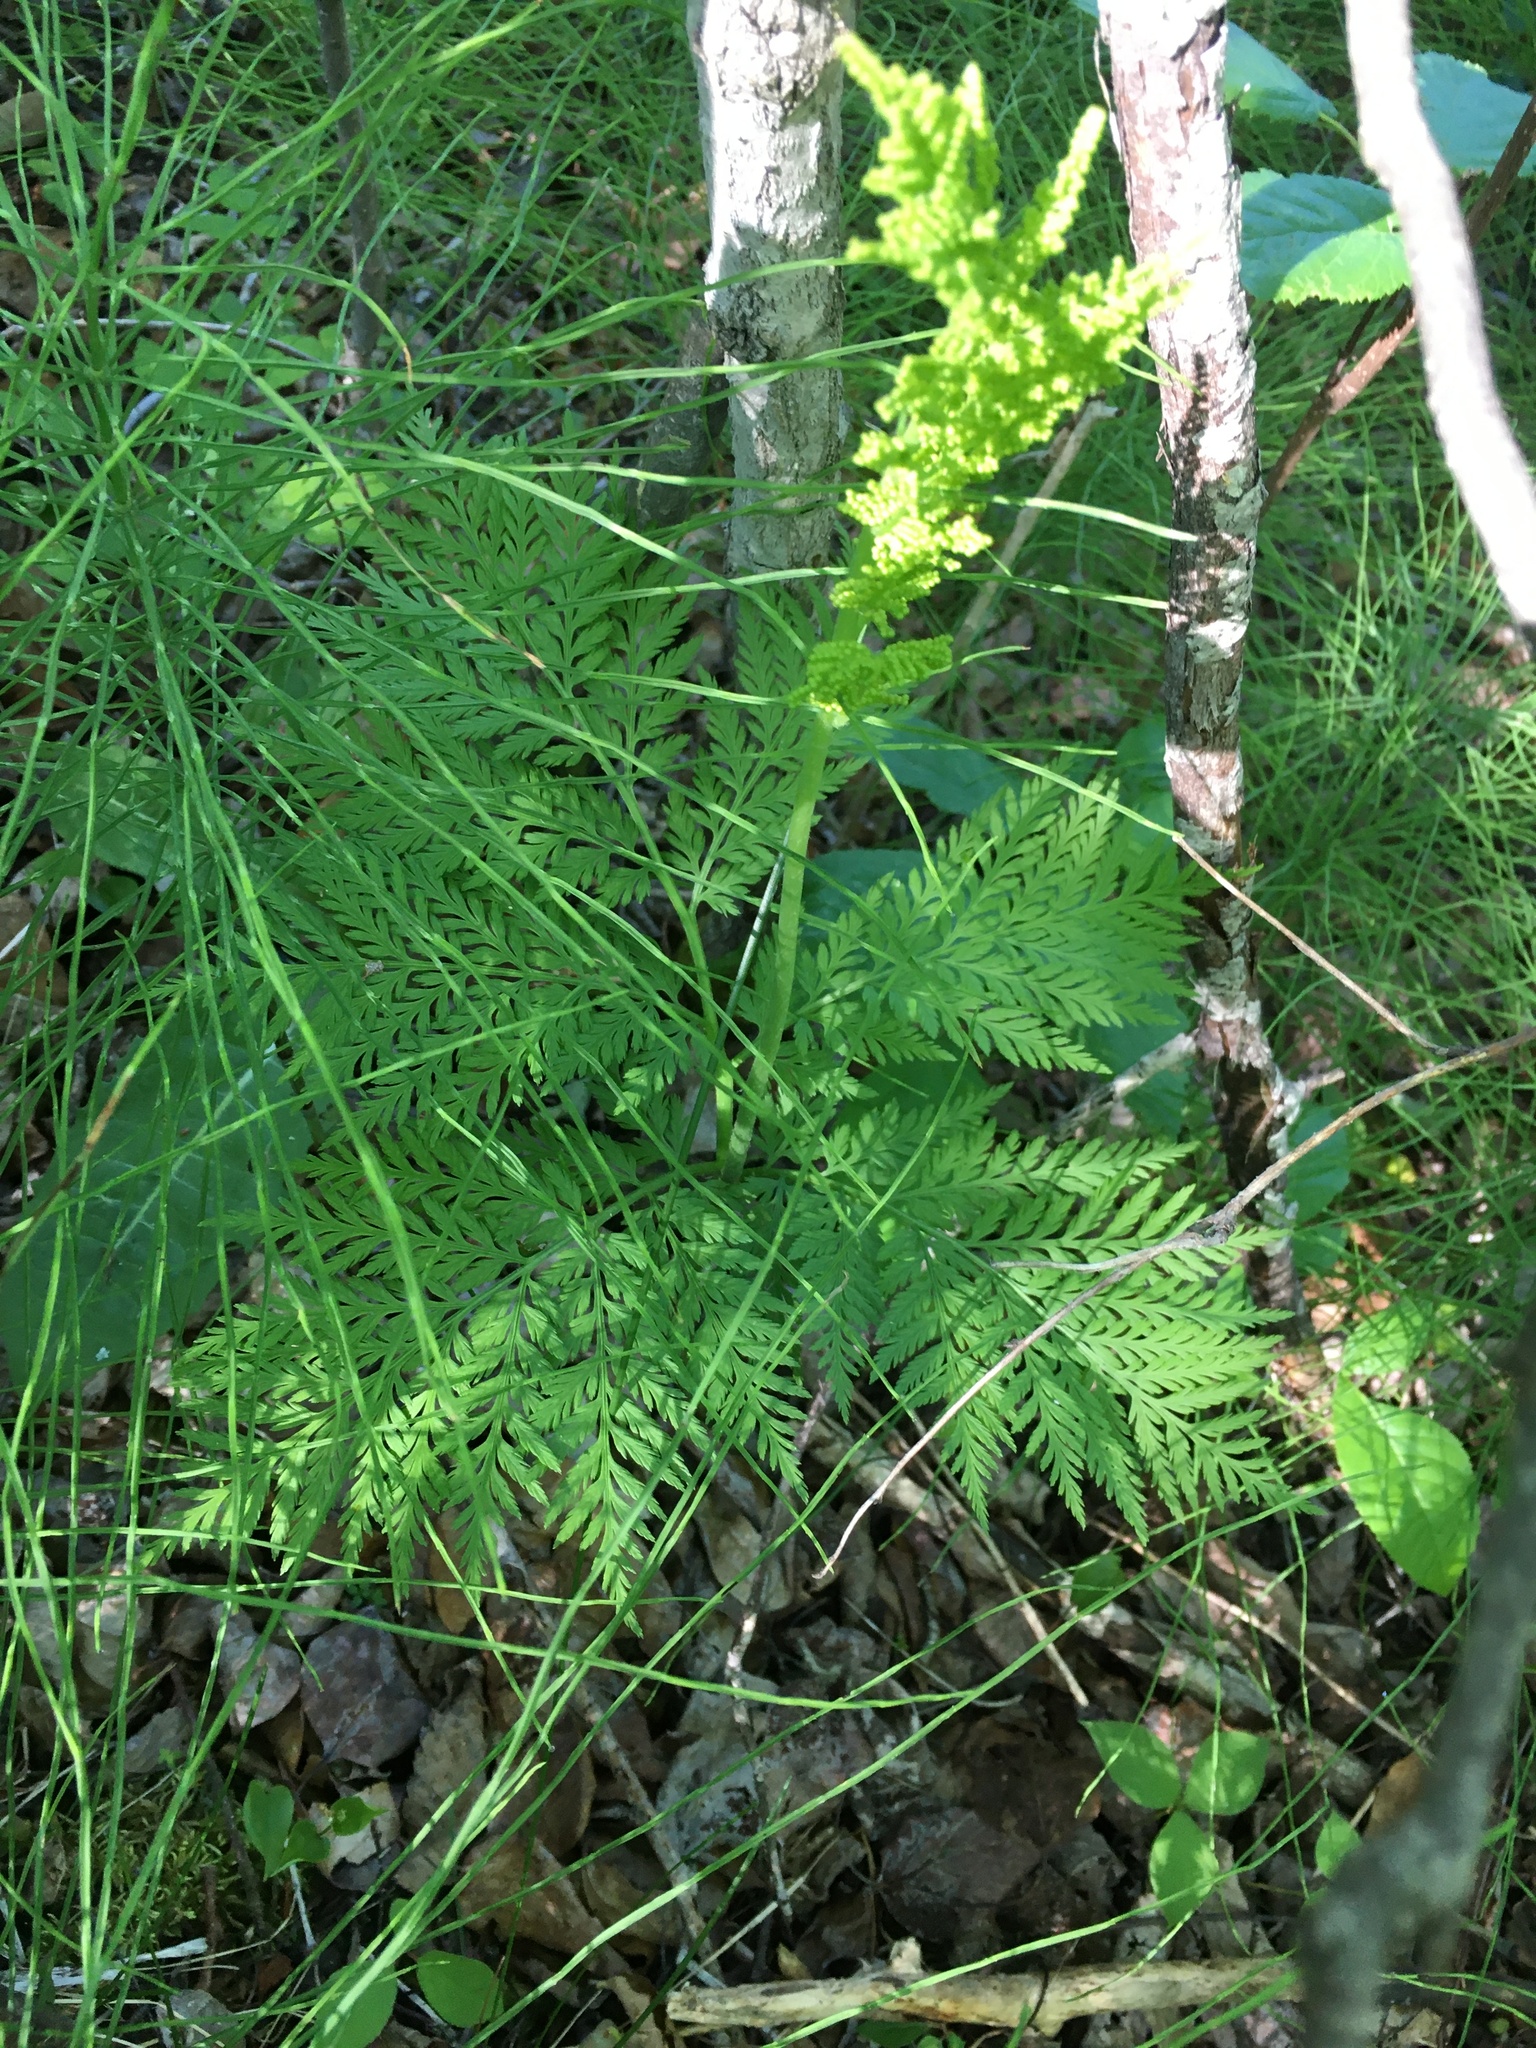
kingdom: Plantae
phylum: Tracheophyta
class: Polypodiopsida
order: Ophioglossales
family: Ophioglossaceae
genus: Botrypus
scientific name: Botrypus virginianus
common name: Common grapefern
